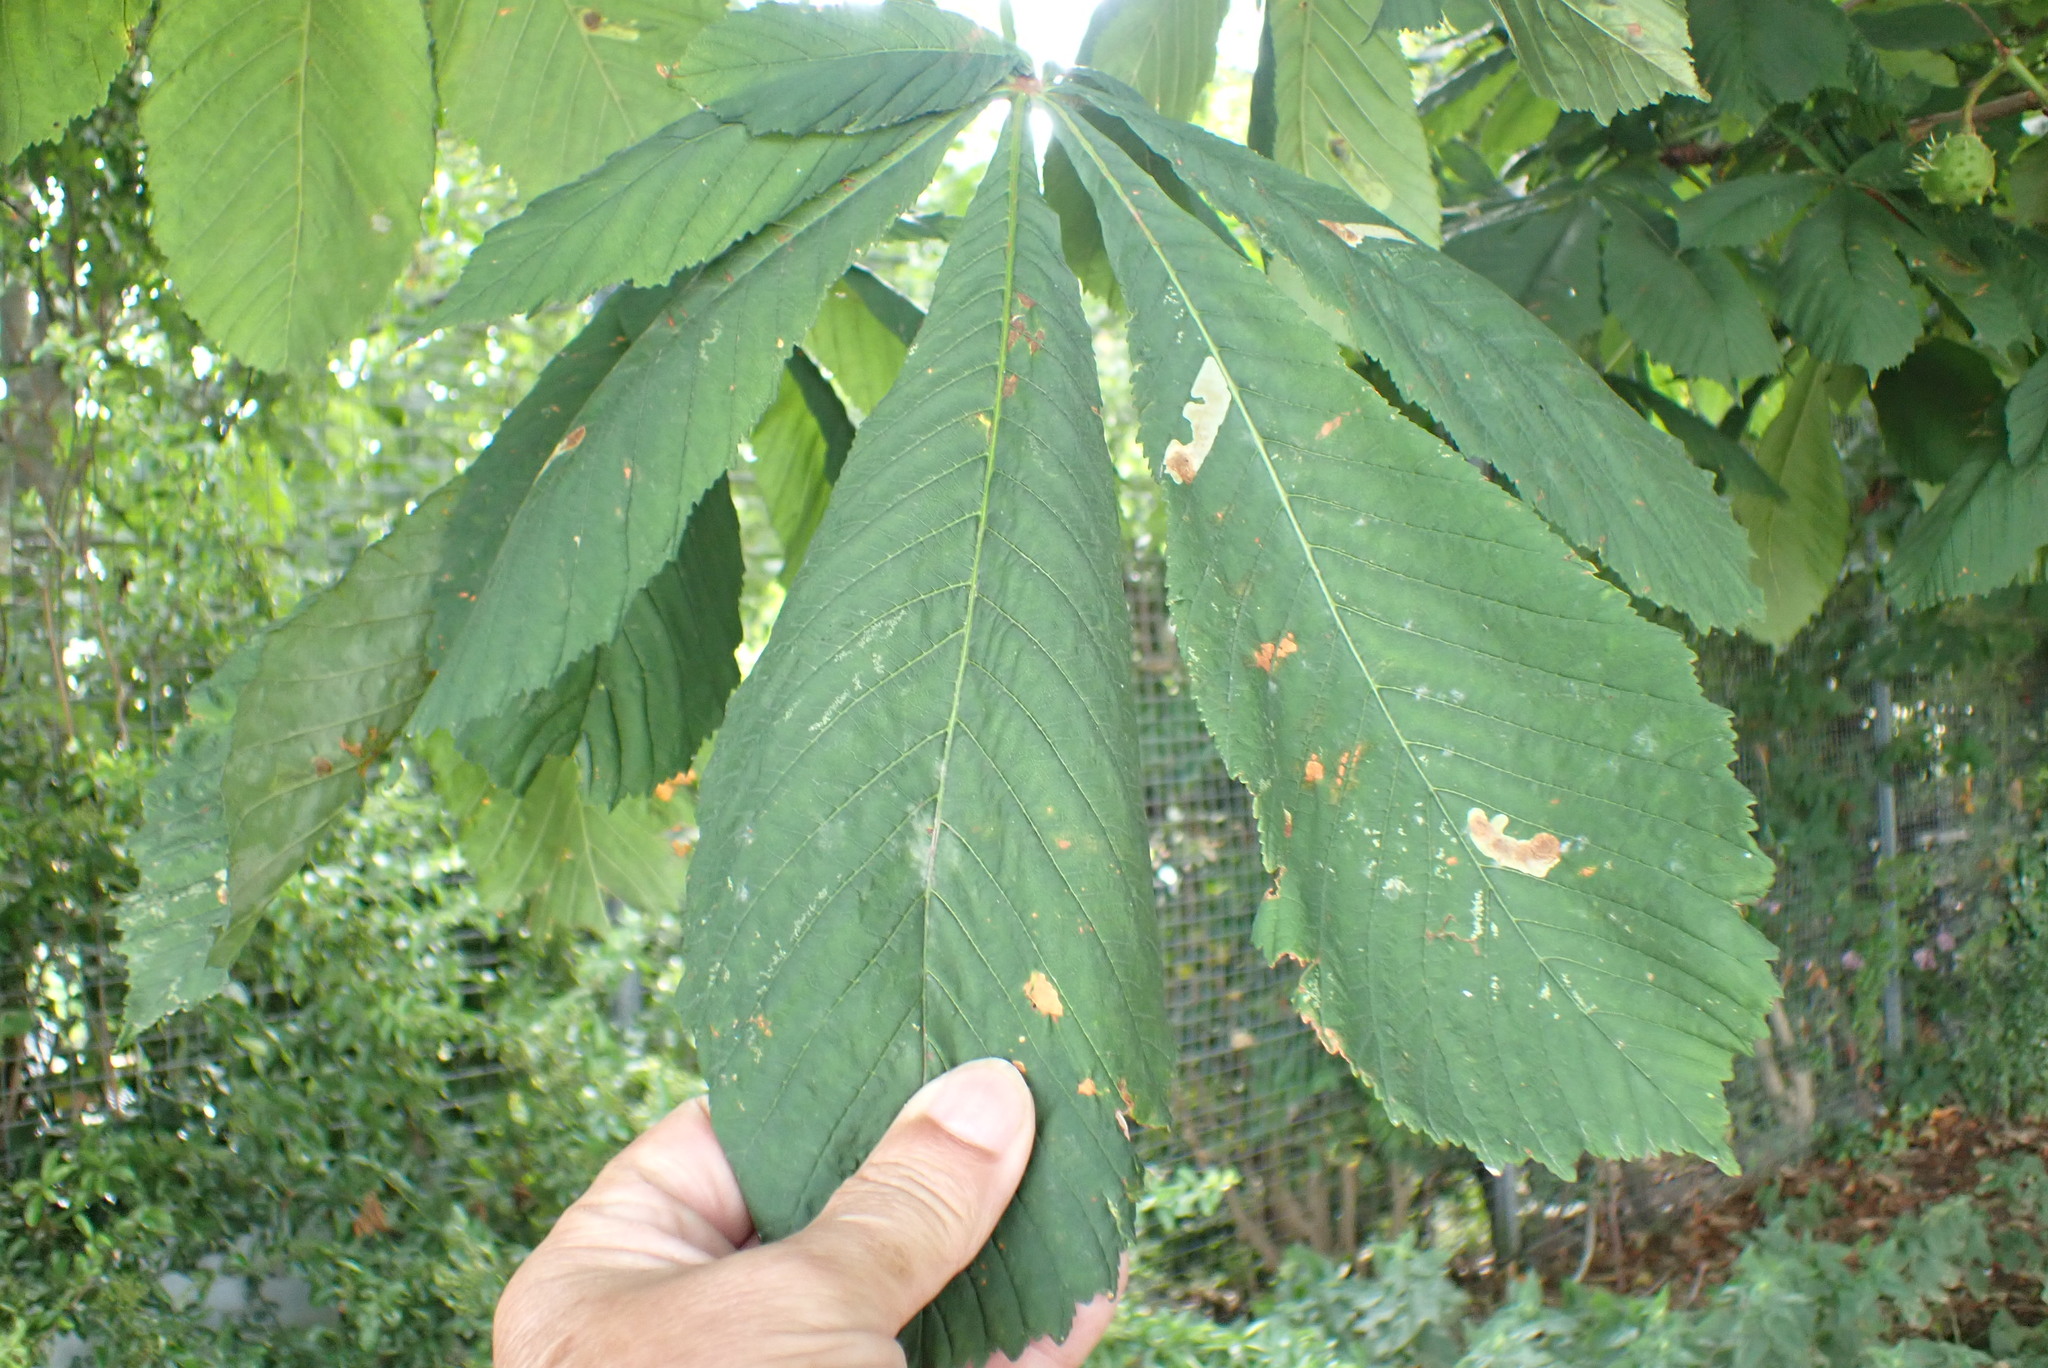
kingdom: Plantae
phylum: Tracheophyta
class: Magnoliopsida
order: Sapindales
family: Sapindaceae
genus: Aesculus
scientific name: Aesculus hippocastanum
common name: Horse-chestnut
